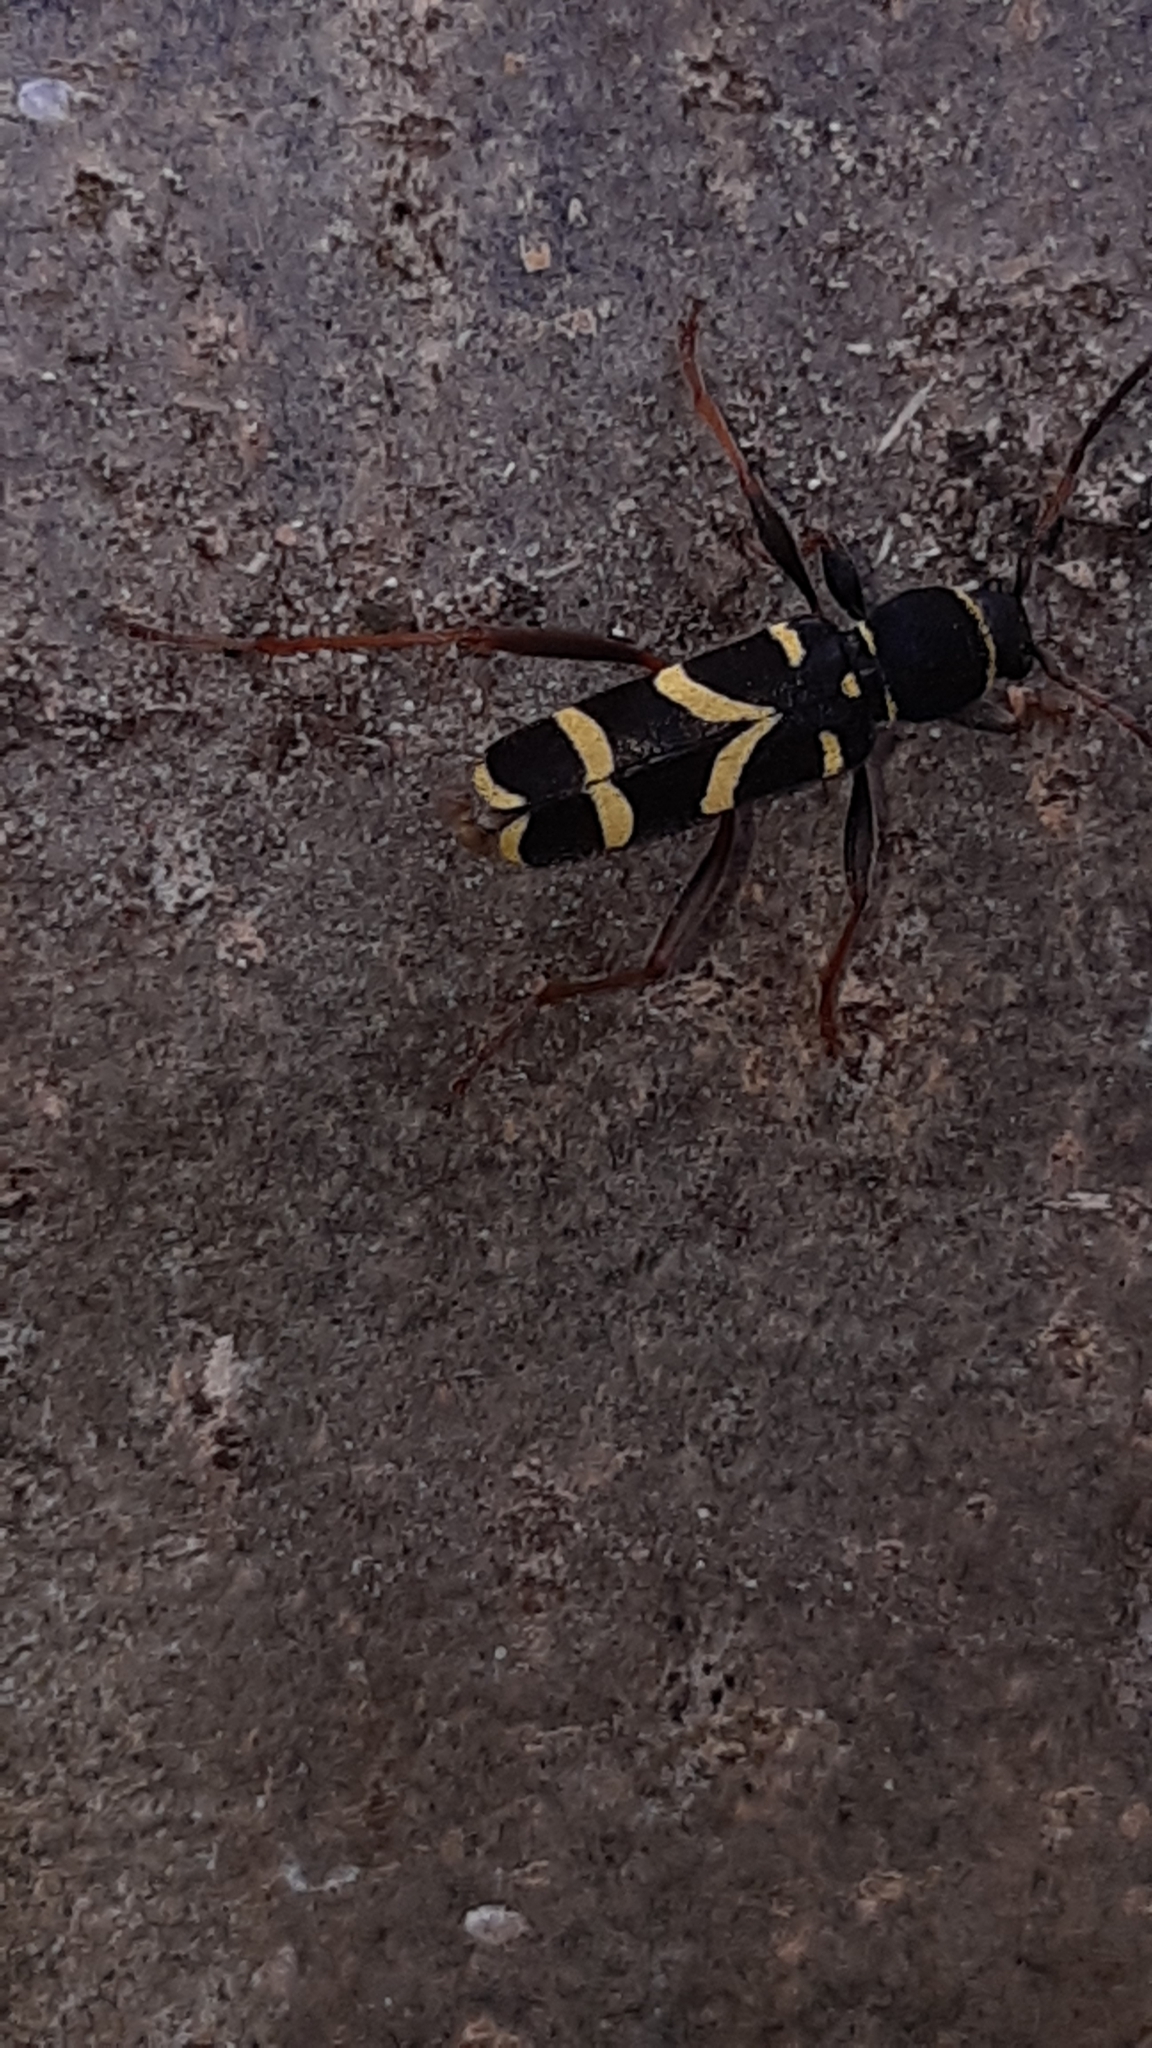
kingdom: Animalia
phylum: Arthropoda
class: Insecta
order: Coleoptera
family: Cerambycidae
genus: Clytus
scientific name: Clytus arietis
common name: Wasp beetle
